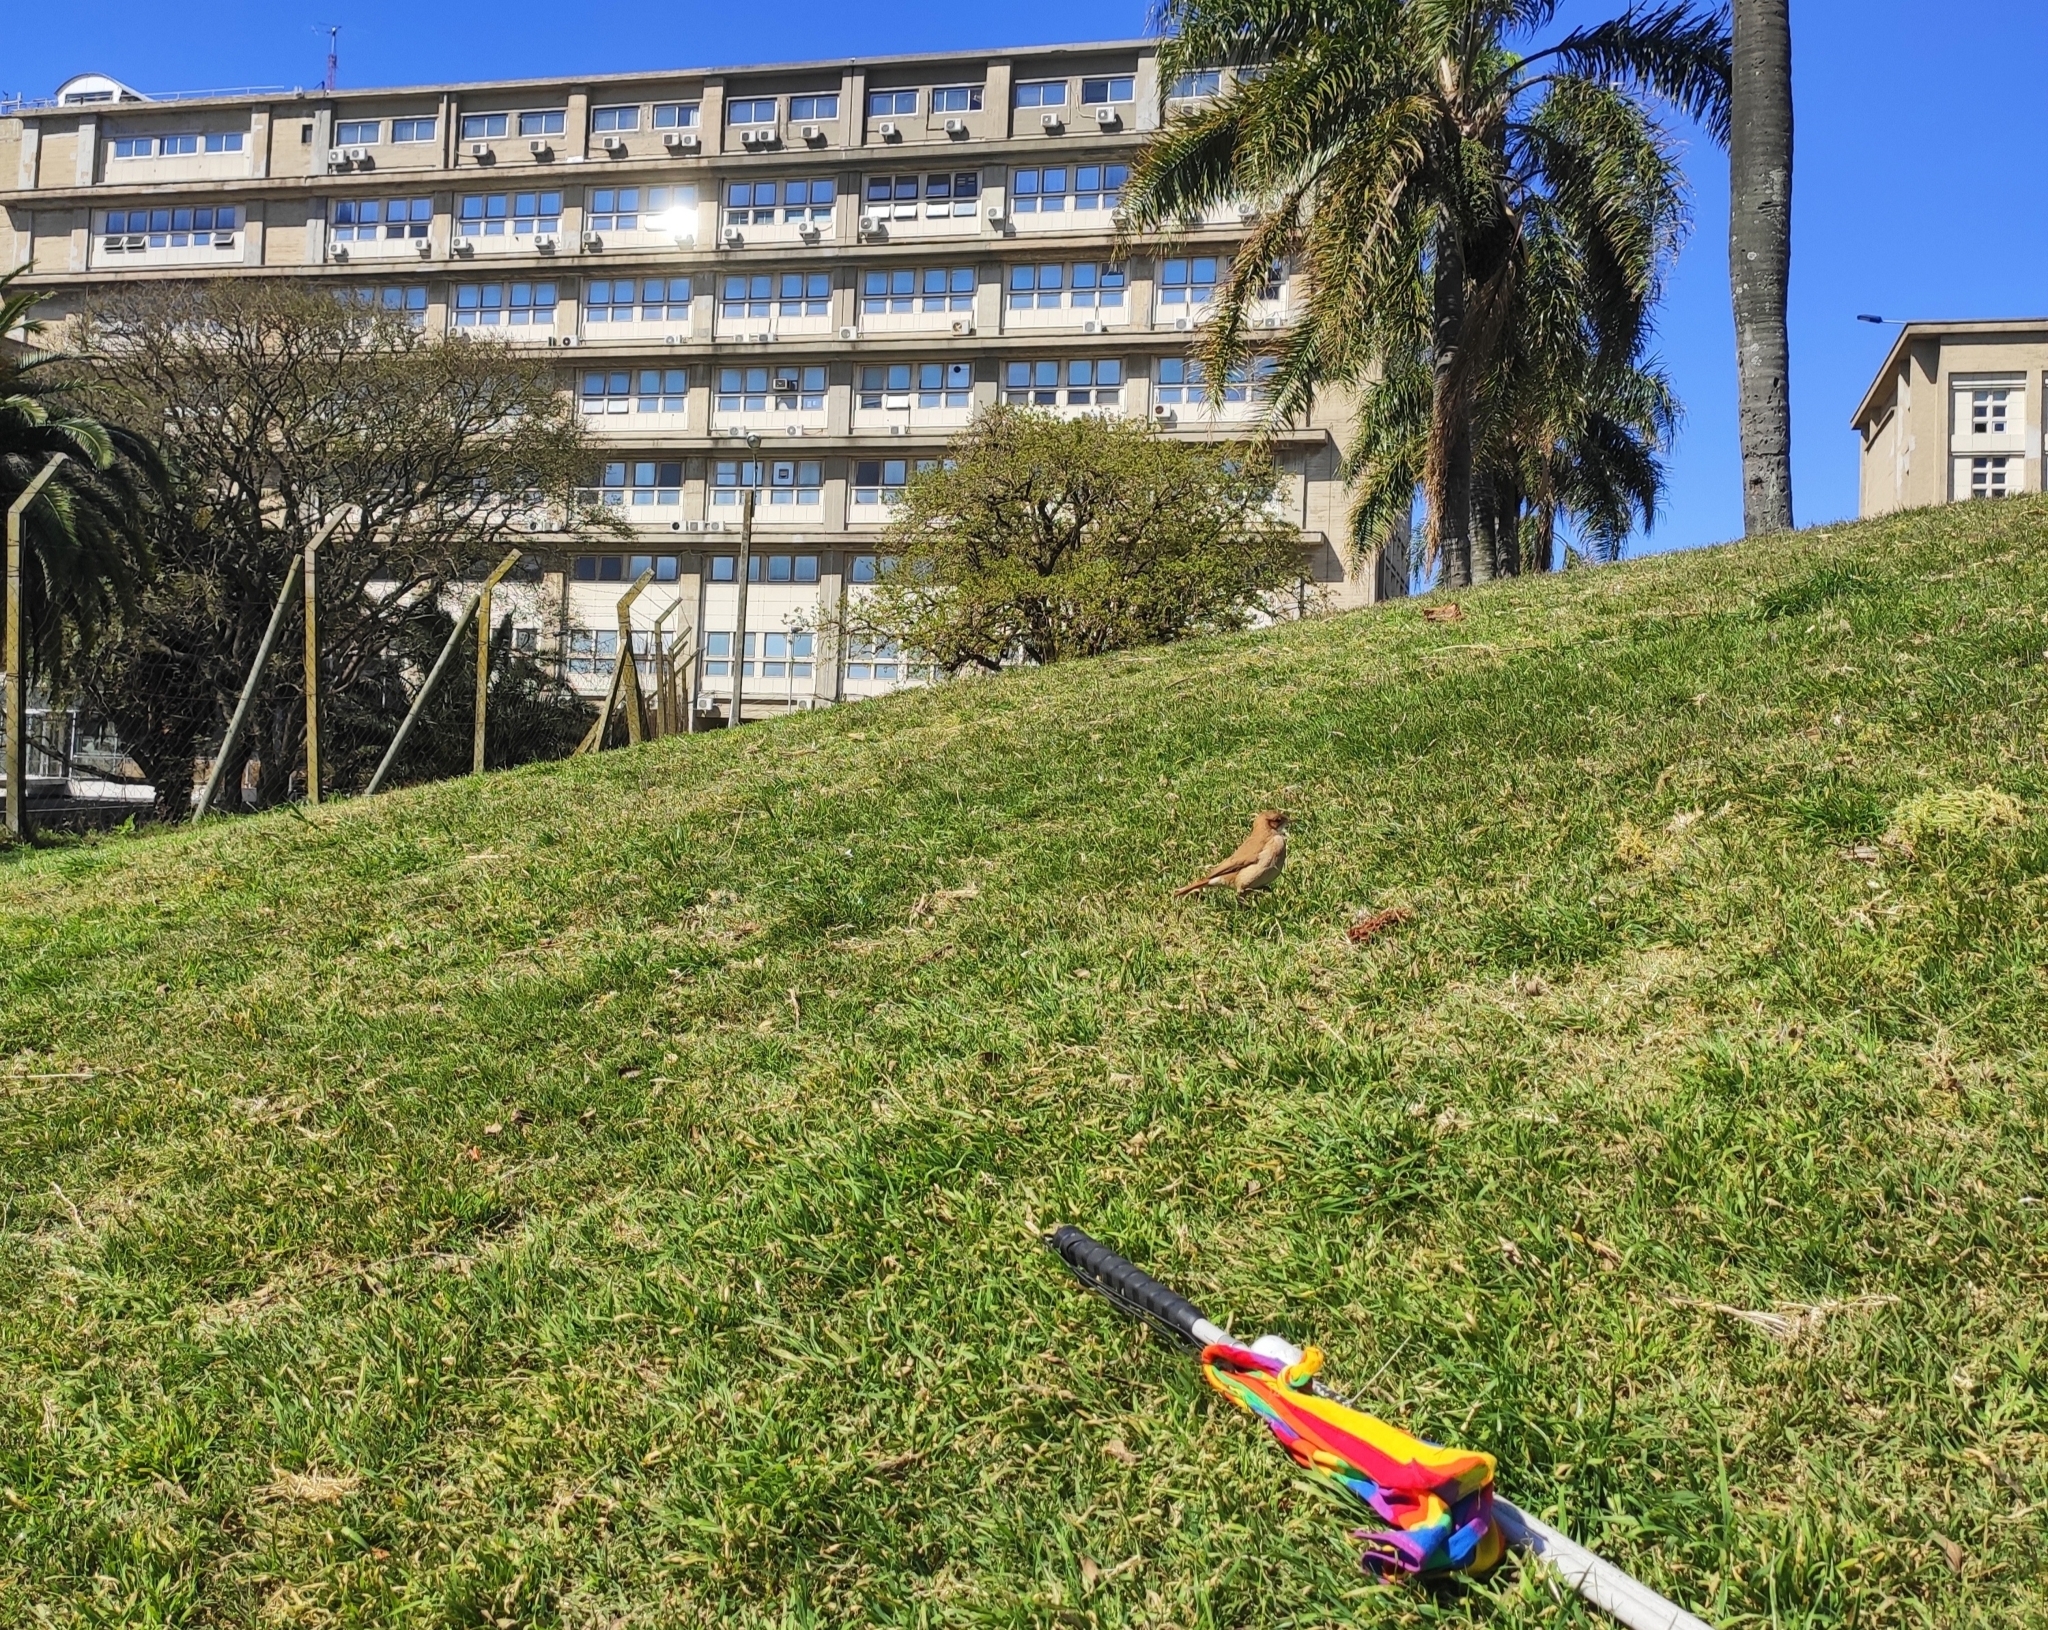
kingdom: Animalia
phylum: Chordata
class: Aves
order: Passeriformes
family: Furnariidae
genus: Furnarius
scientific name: Furnarius rufus
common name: Rufous hornero
